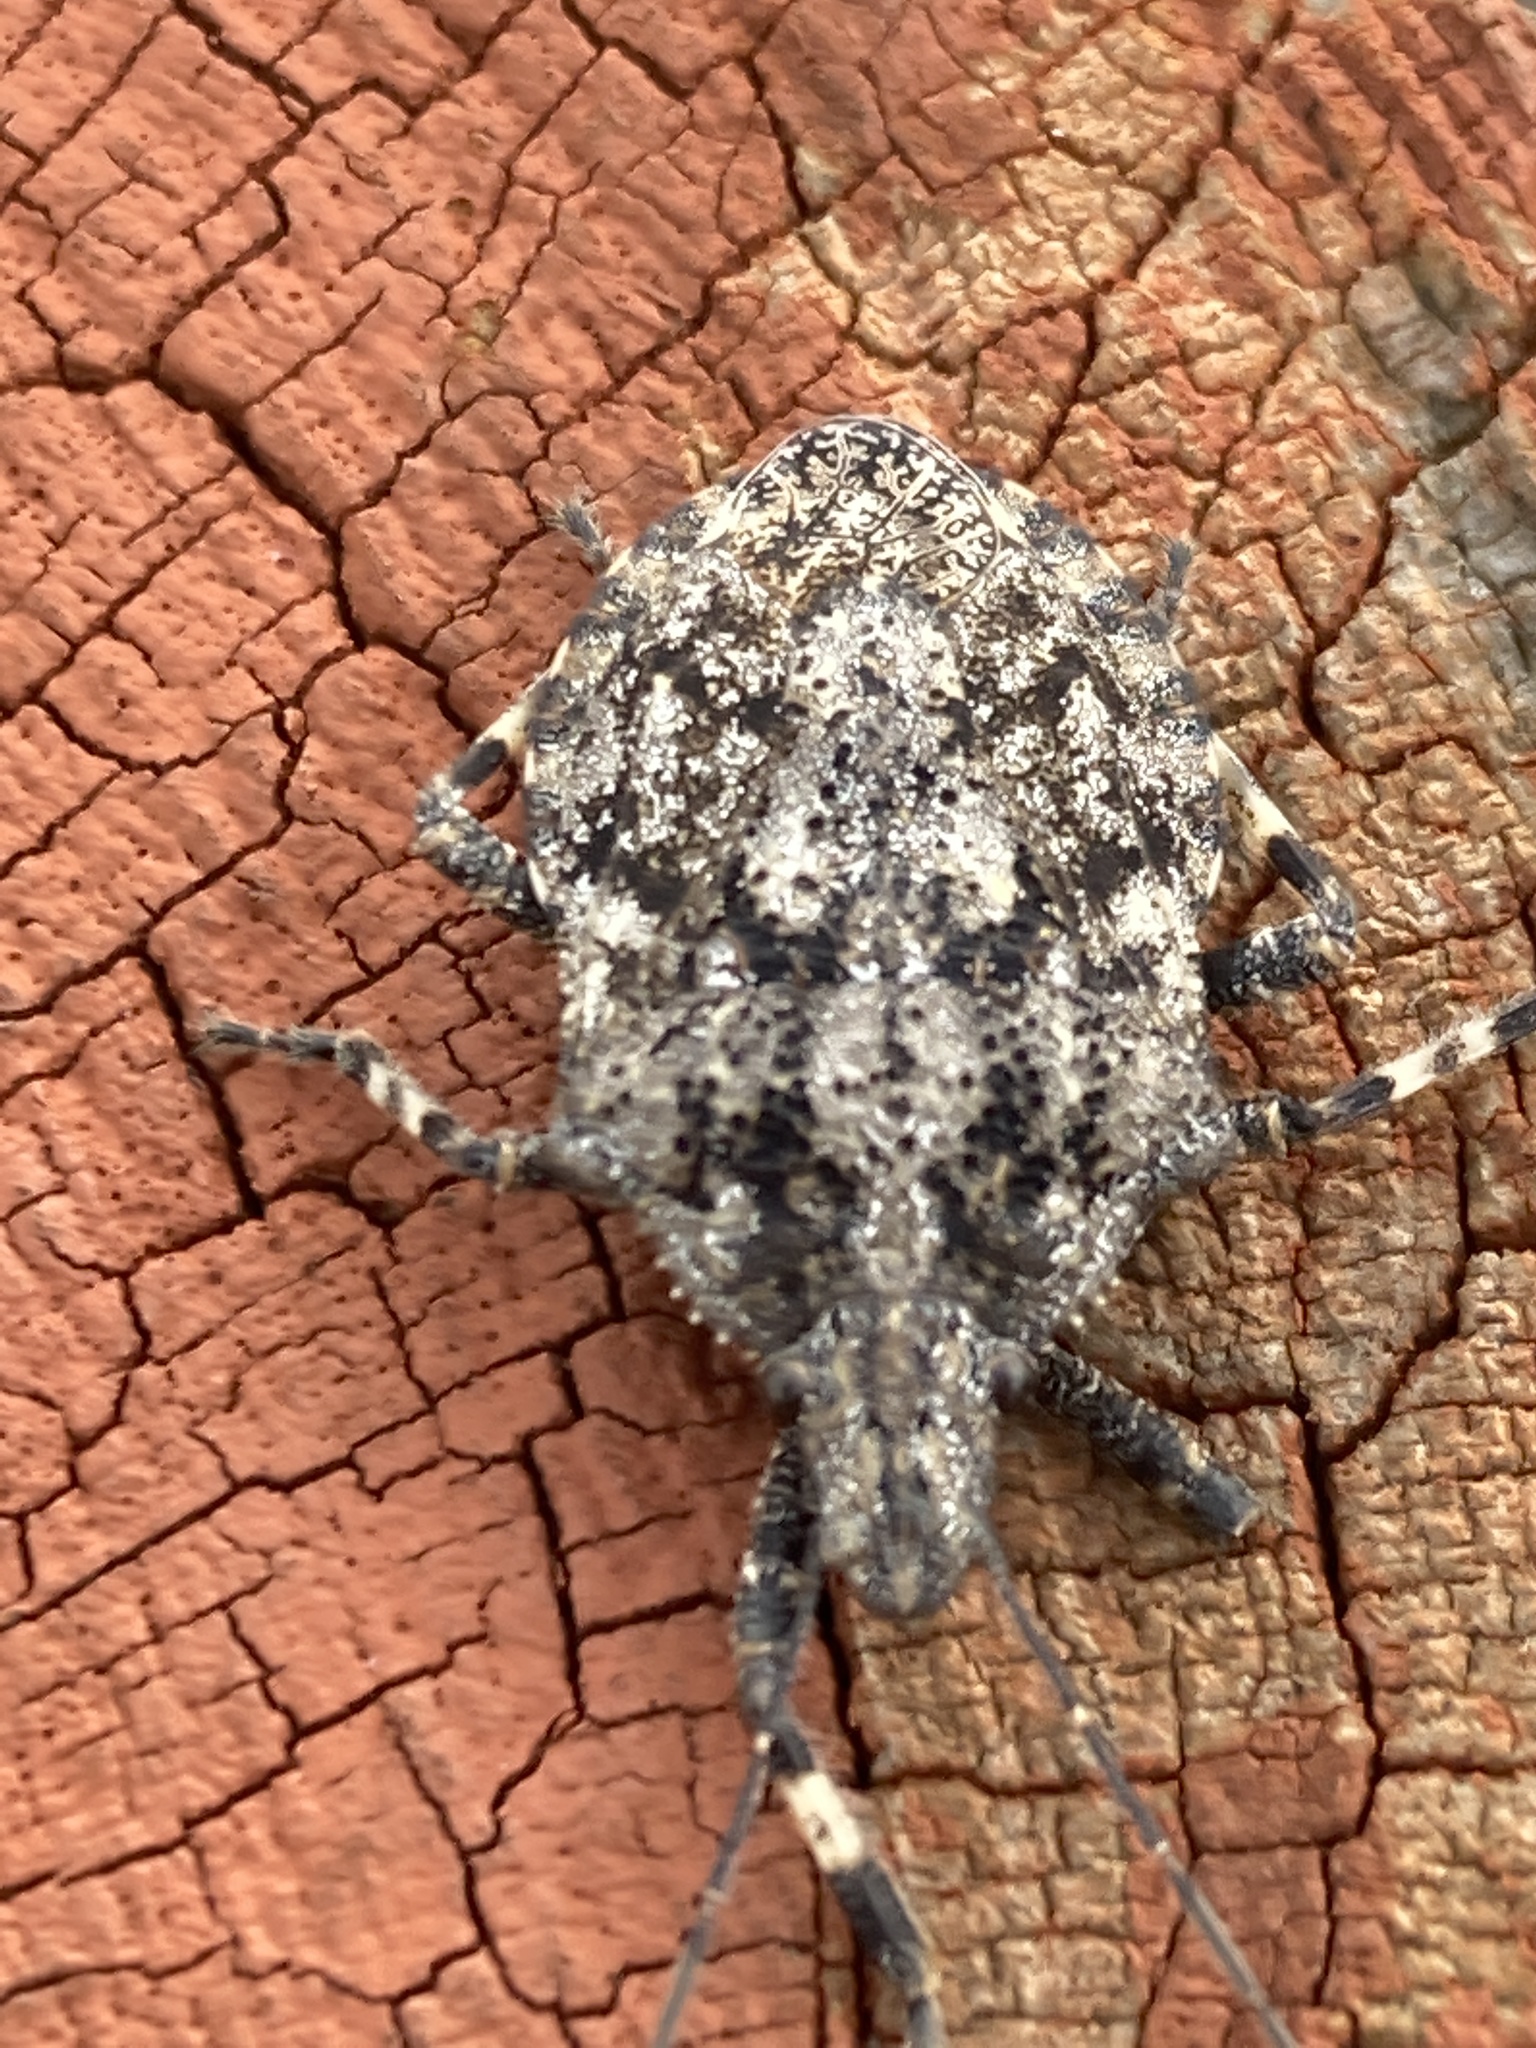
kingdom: Animalia
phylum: Arthropoda
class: Insecta
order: Hemiptera
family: Pentatomidae
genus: Brochymena
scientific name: Brochymena arborea
